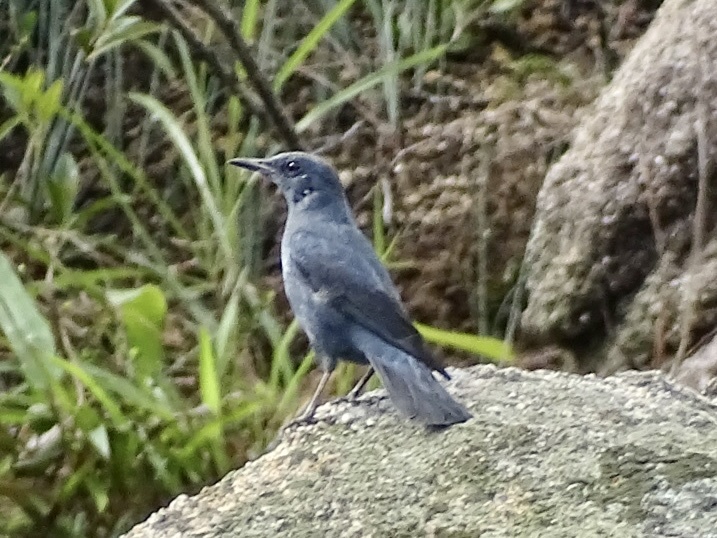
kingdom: Animalia
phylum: Chordata
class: Aves
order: Passeriformes
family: Muscicapidae
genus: Monticola
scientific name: Monticola solitarius
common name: Blue rock thrush
